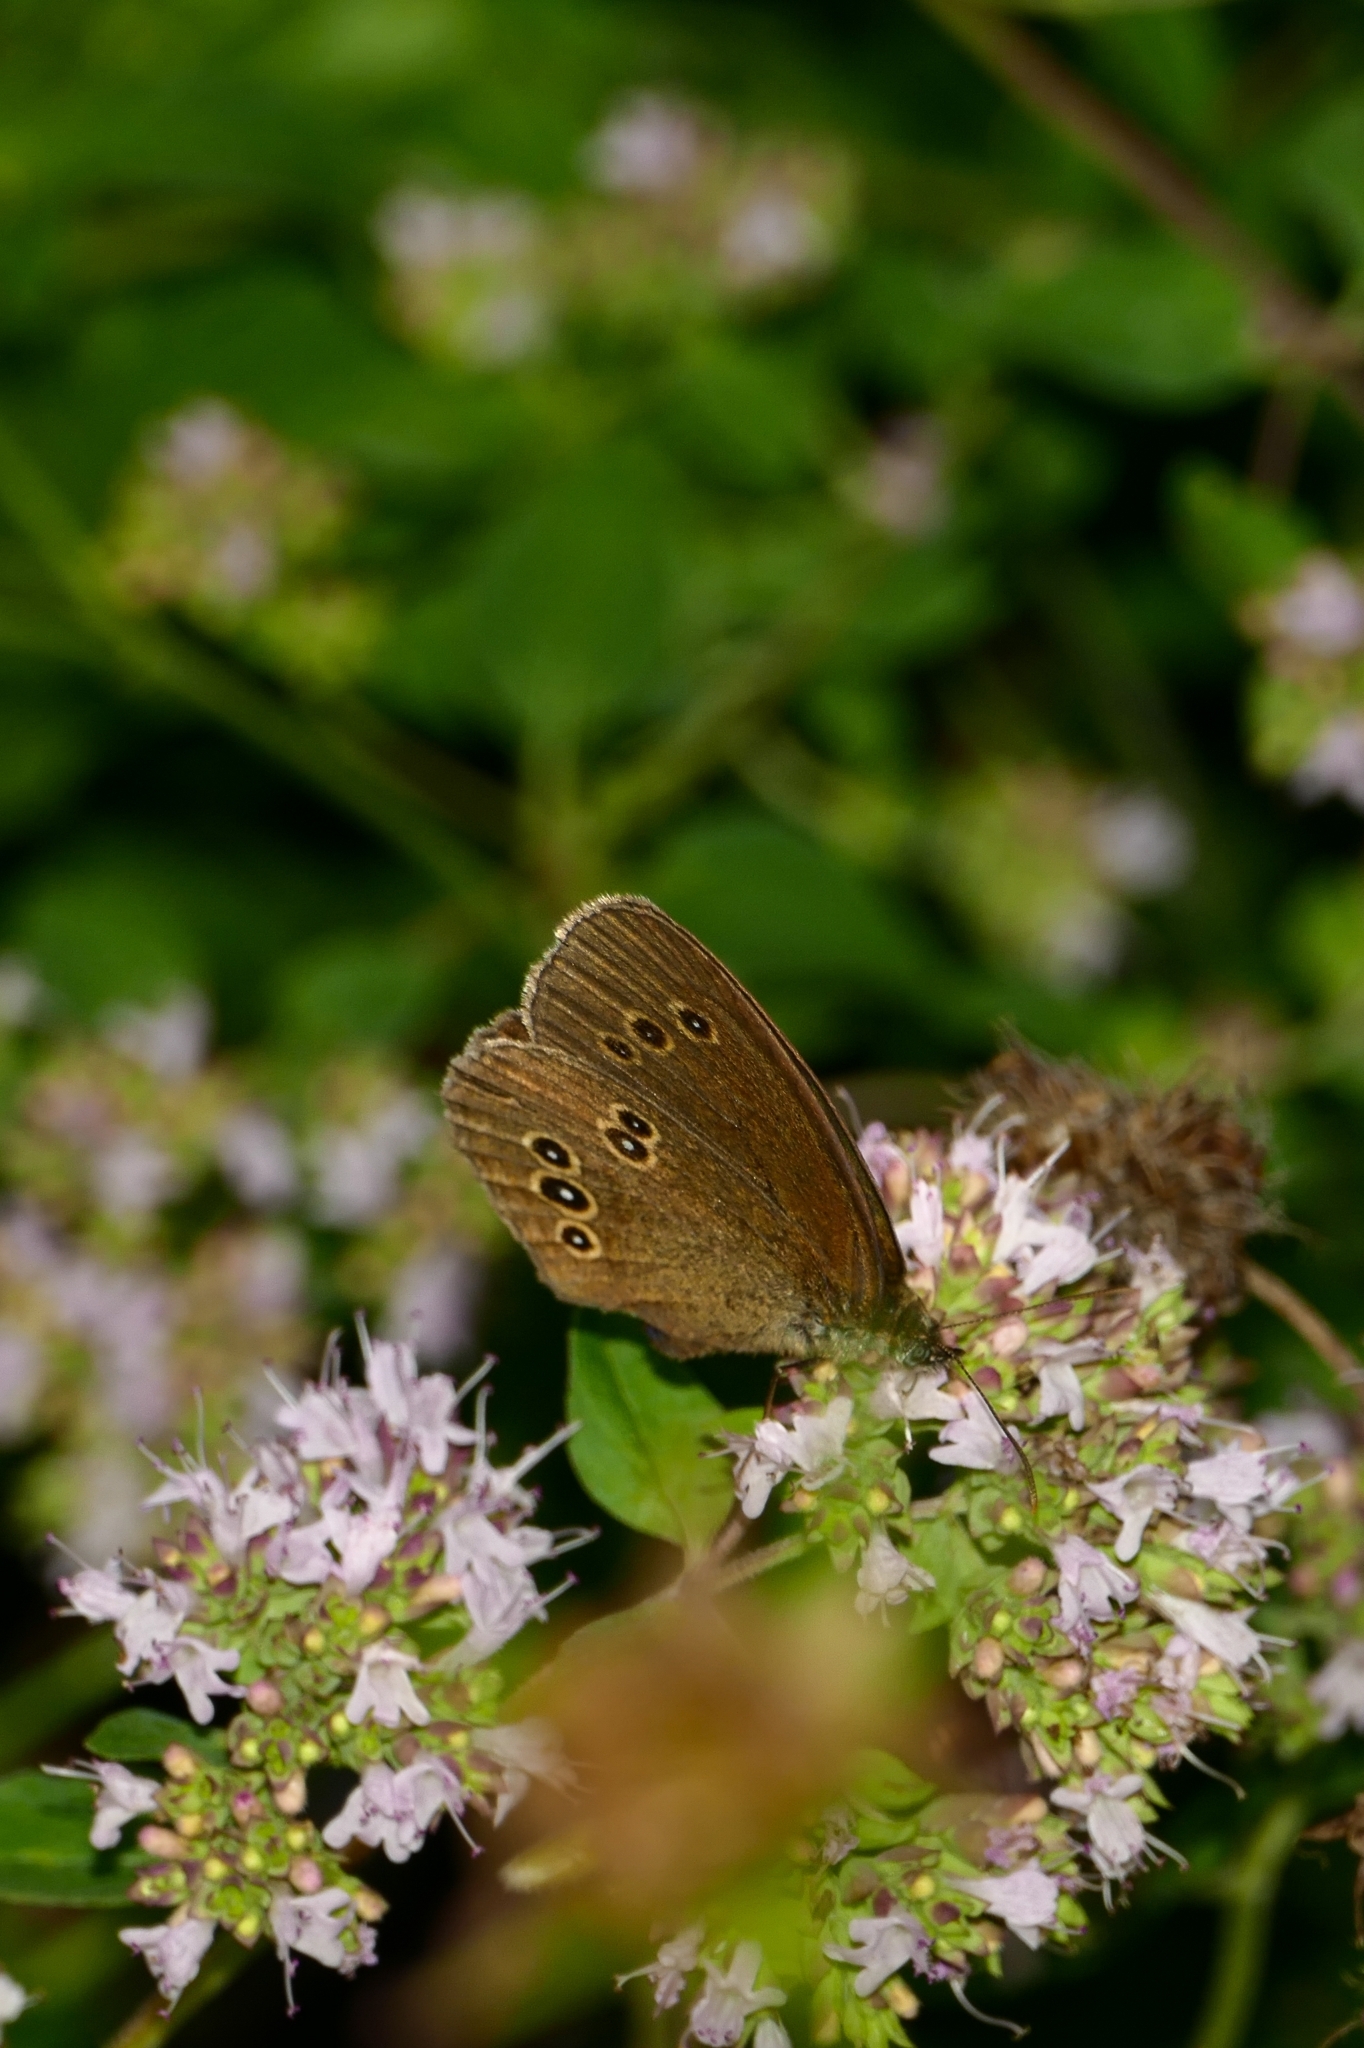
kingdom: Animalia
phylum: Arthropoda
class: Insecta
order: Lepidoptera
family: Nymphalidae
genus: Aphantopus
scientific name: Aphantopus hyperantus
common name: Ringlet
